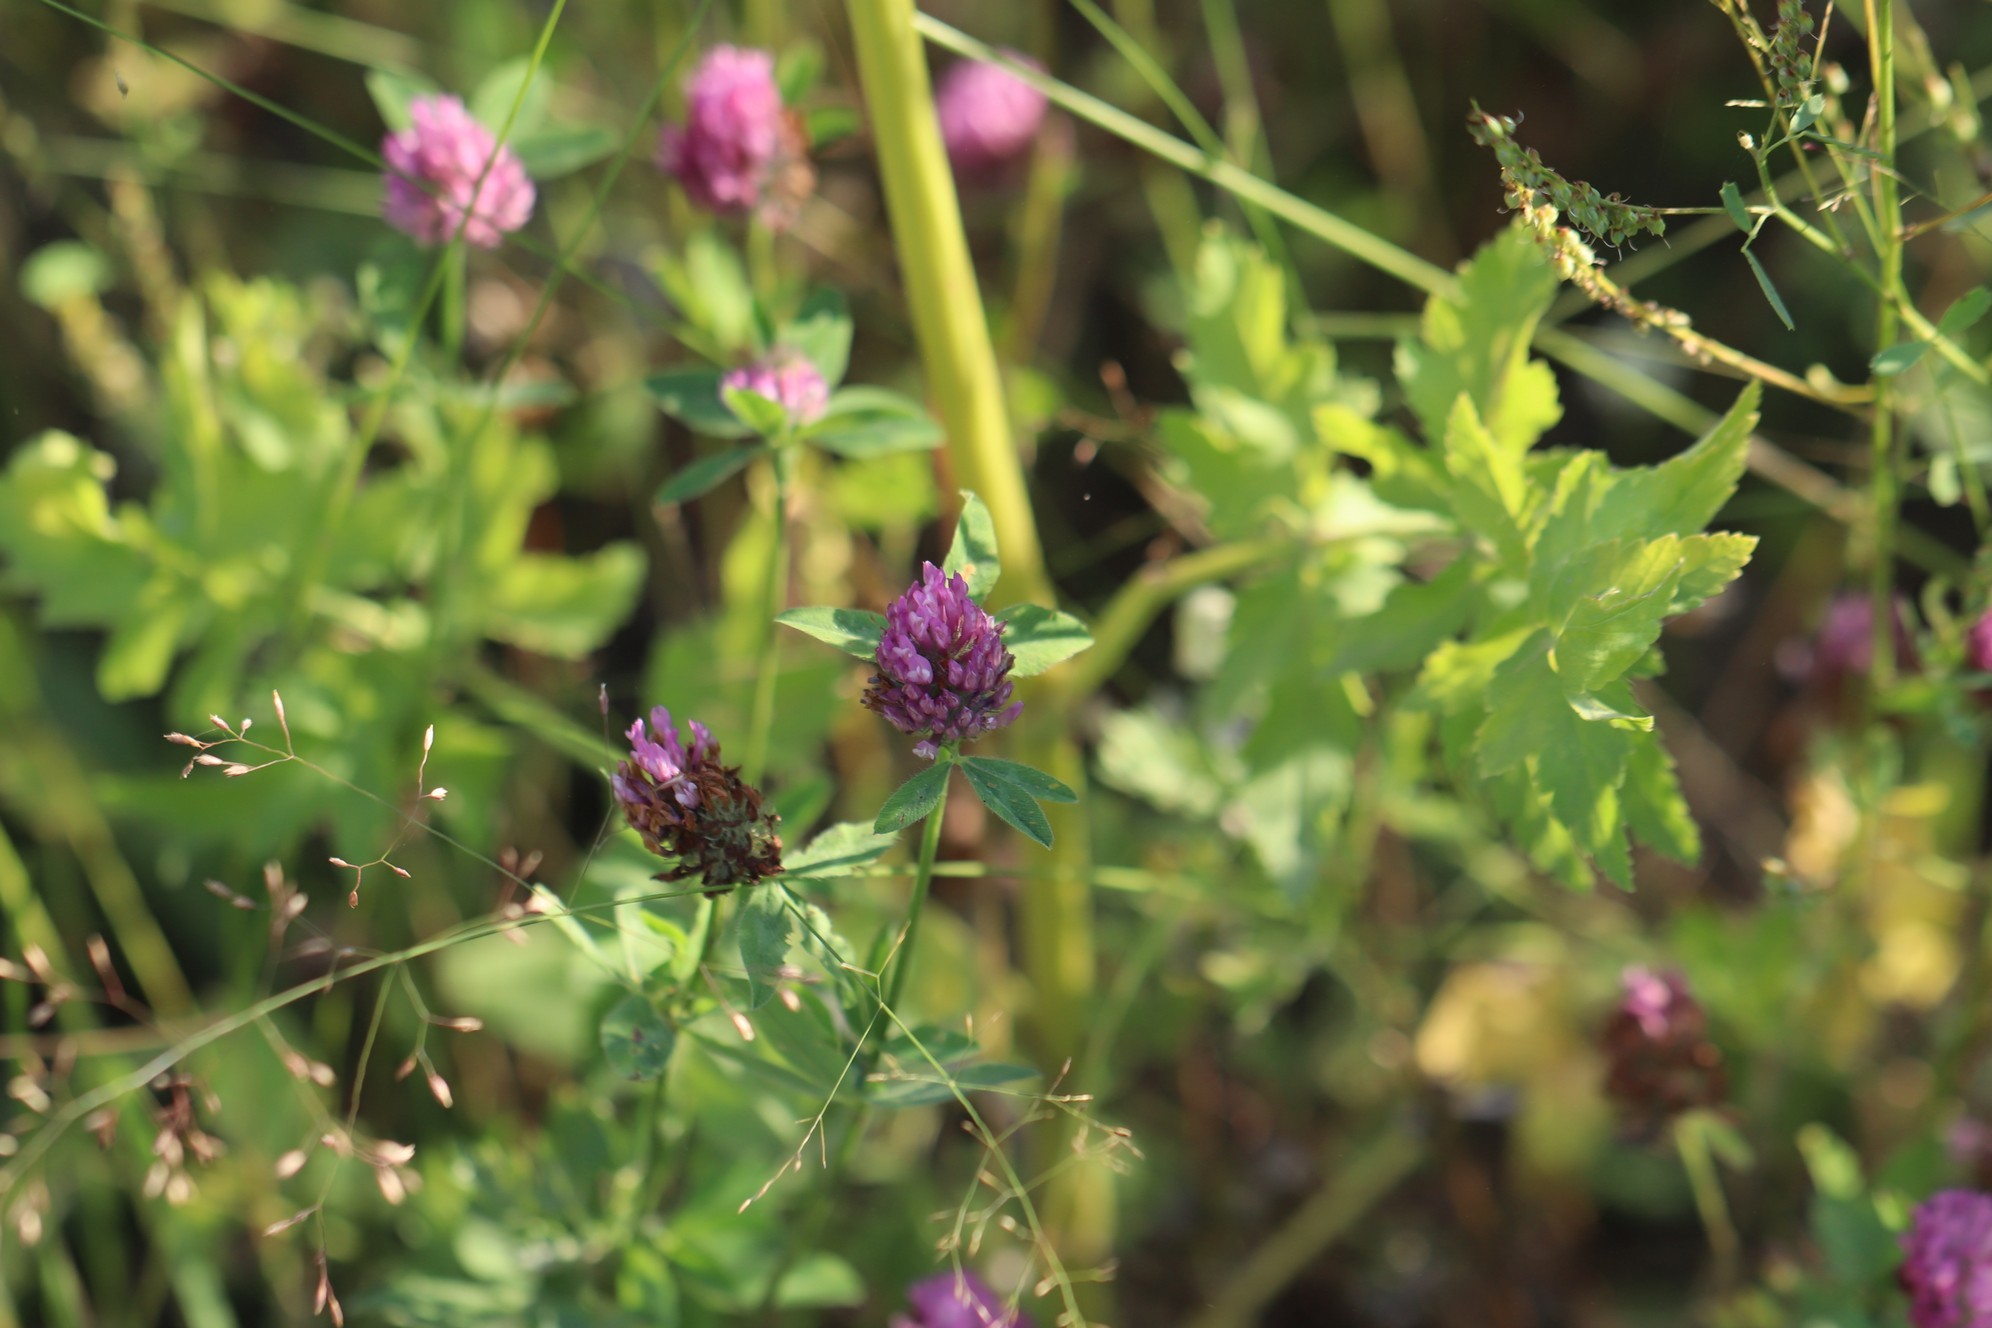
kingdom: Plantae
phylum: Tracheophyta
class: Magnoliopsida
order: Fabales
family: Fabaceae
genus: Trifolium
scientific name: Trifolium pratense
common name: Red clover
